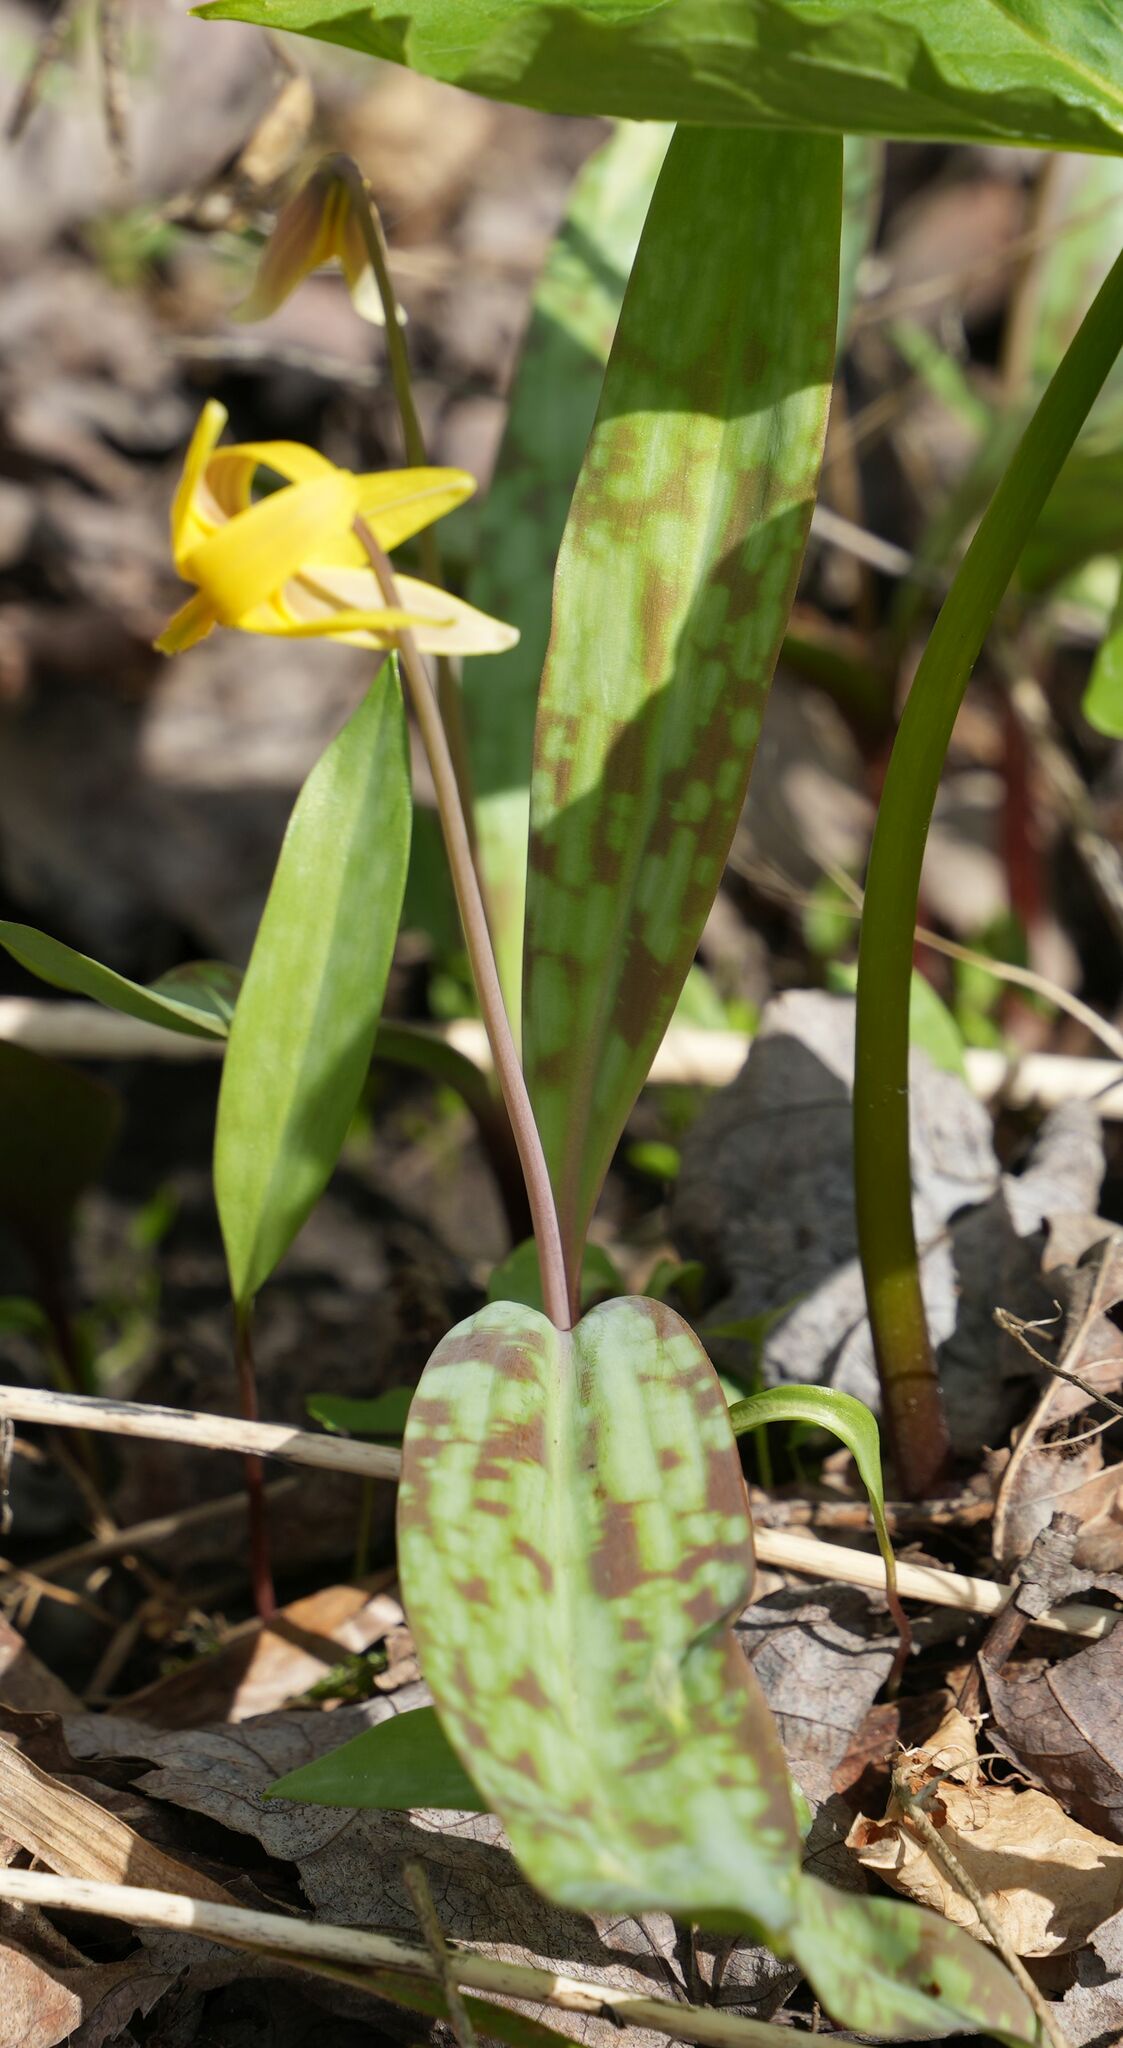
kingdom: Plantae
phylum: Tracheophyta
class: Liliopsida
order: Liliales
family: Liliaceae
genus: Erythronium
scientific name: Erythronium americanum
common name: Yellow adder's-tongue
